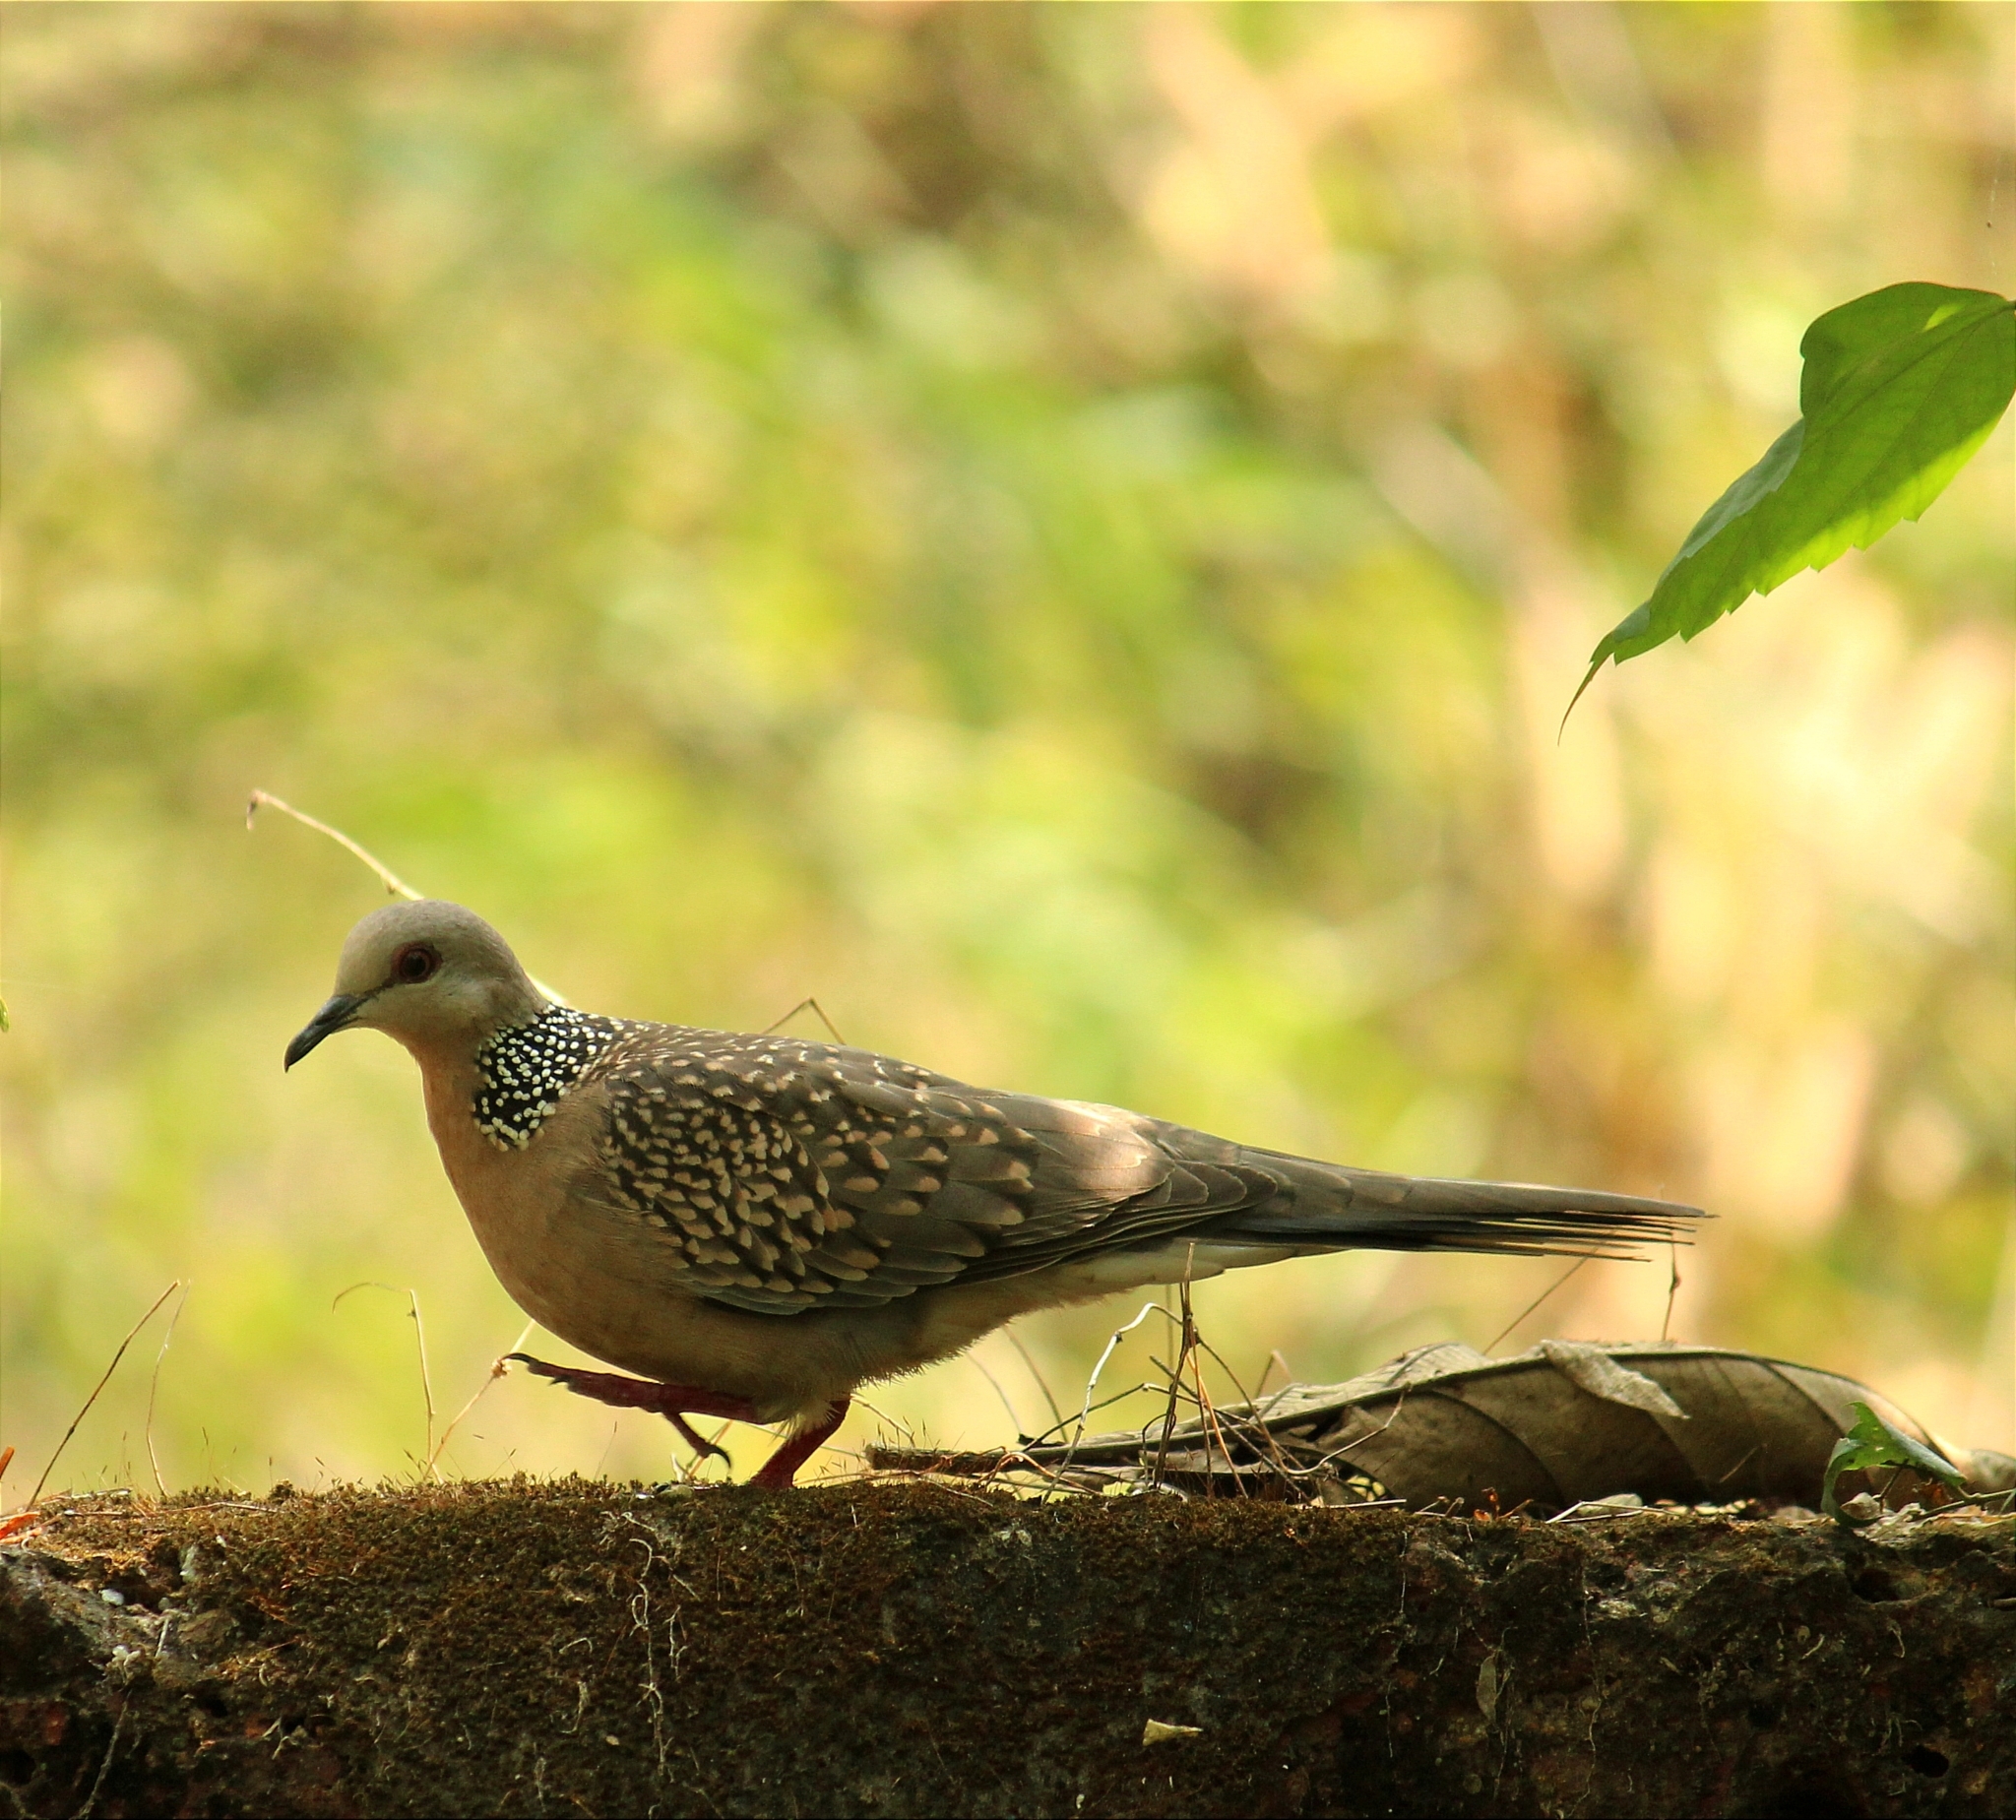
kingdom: Animalia
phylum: Chordata
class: Aves
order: Columbiformes
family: Columbidae
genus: Spilopelia
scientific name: Spilopelia chinensis
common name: Spotted dove
